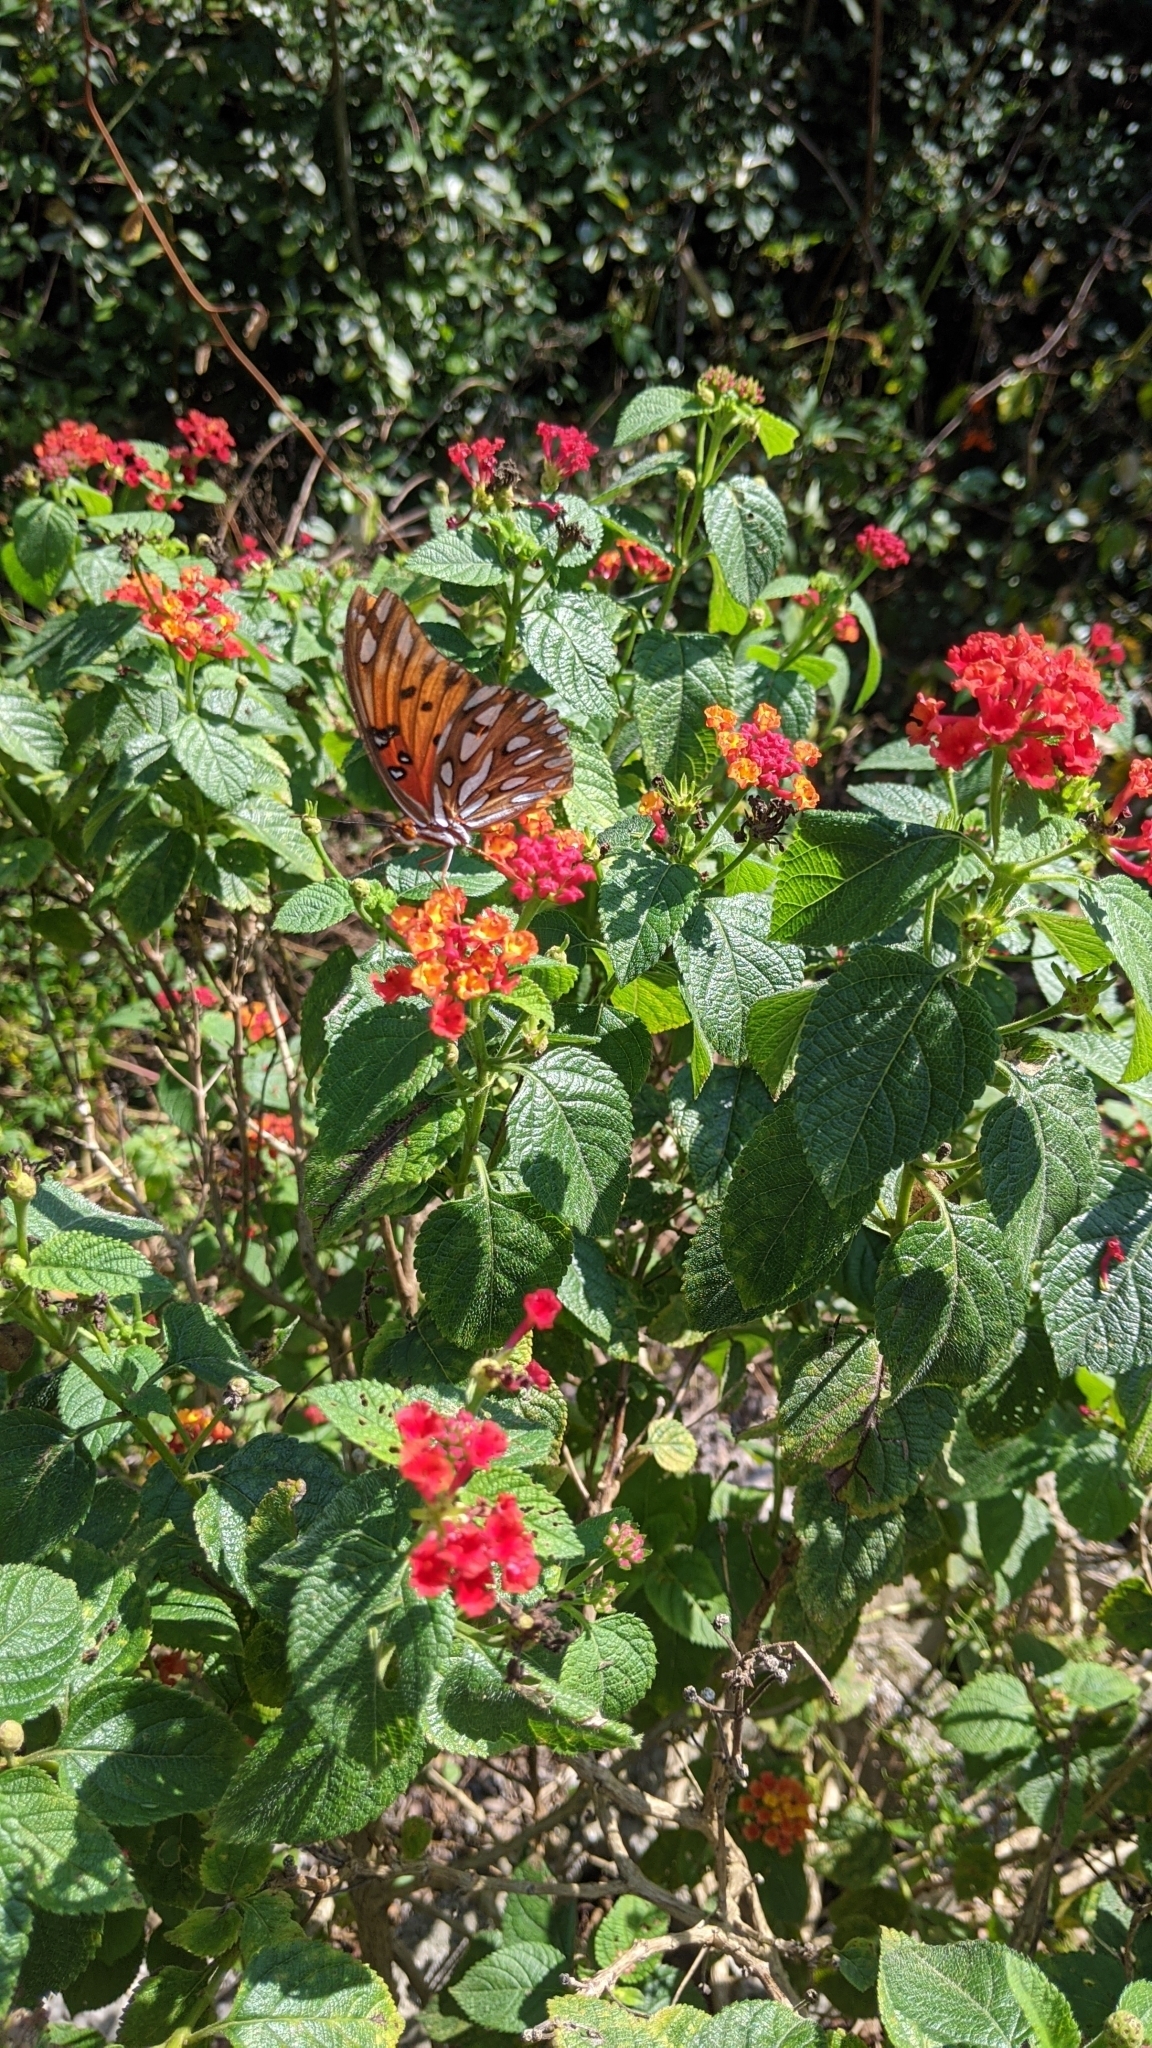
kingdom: Animalia
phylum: Arthropoda
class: Insecta
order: Lepidoptera
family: Nymphalidae
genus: Dione
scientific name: Dione vanillae
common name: Gulf fritillary
